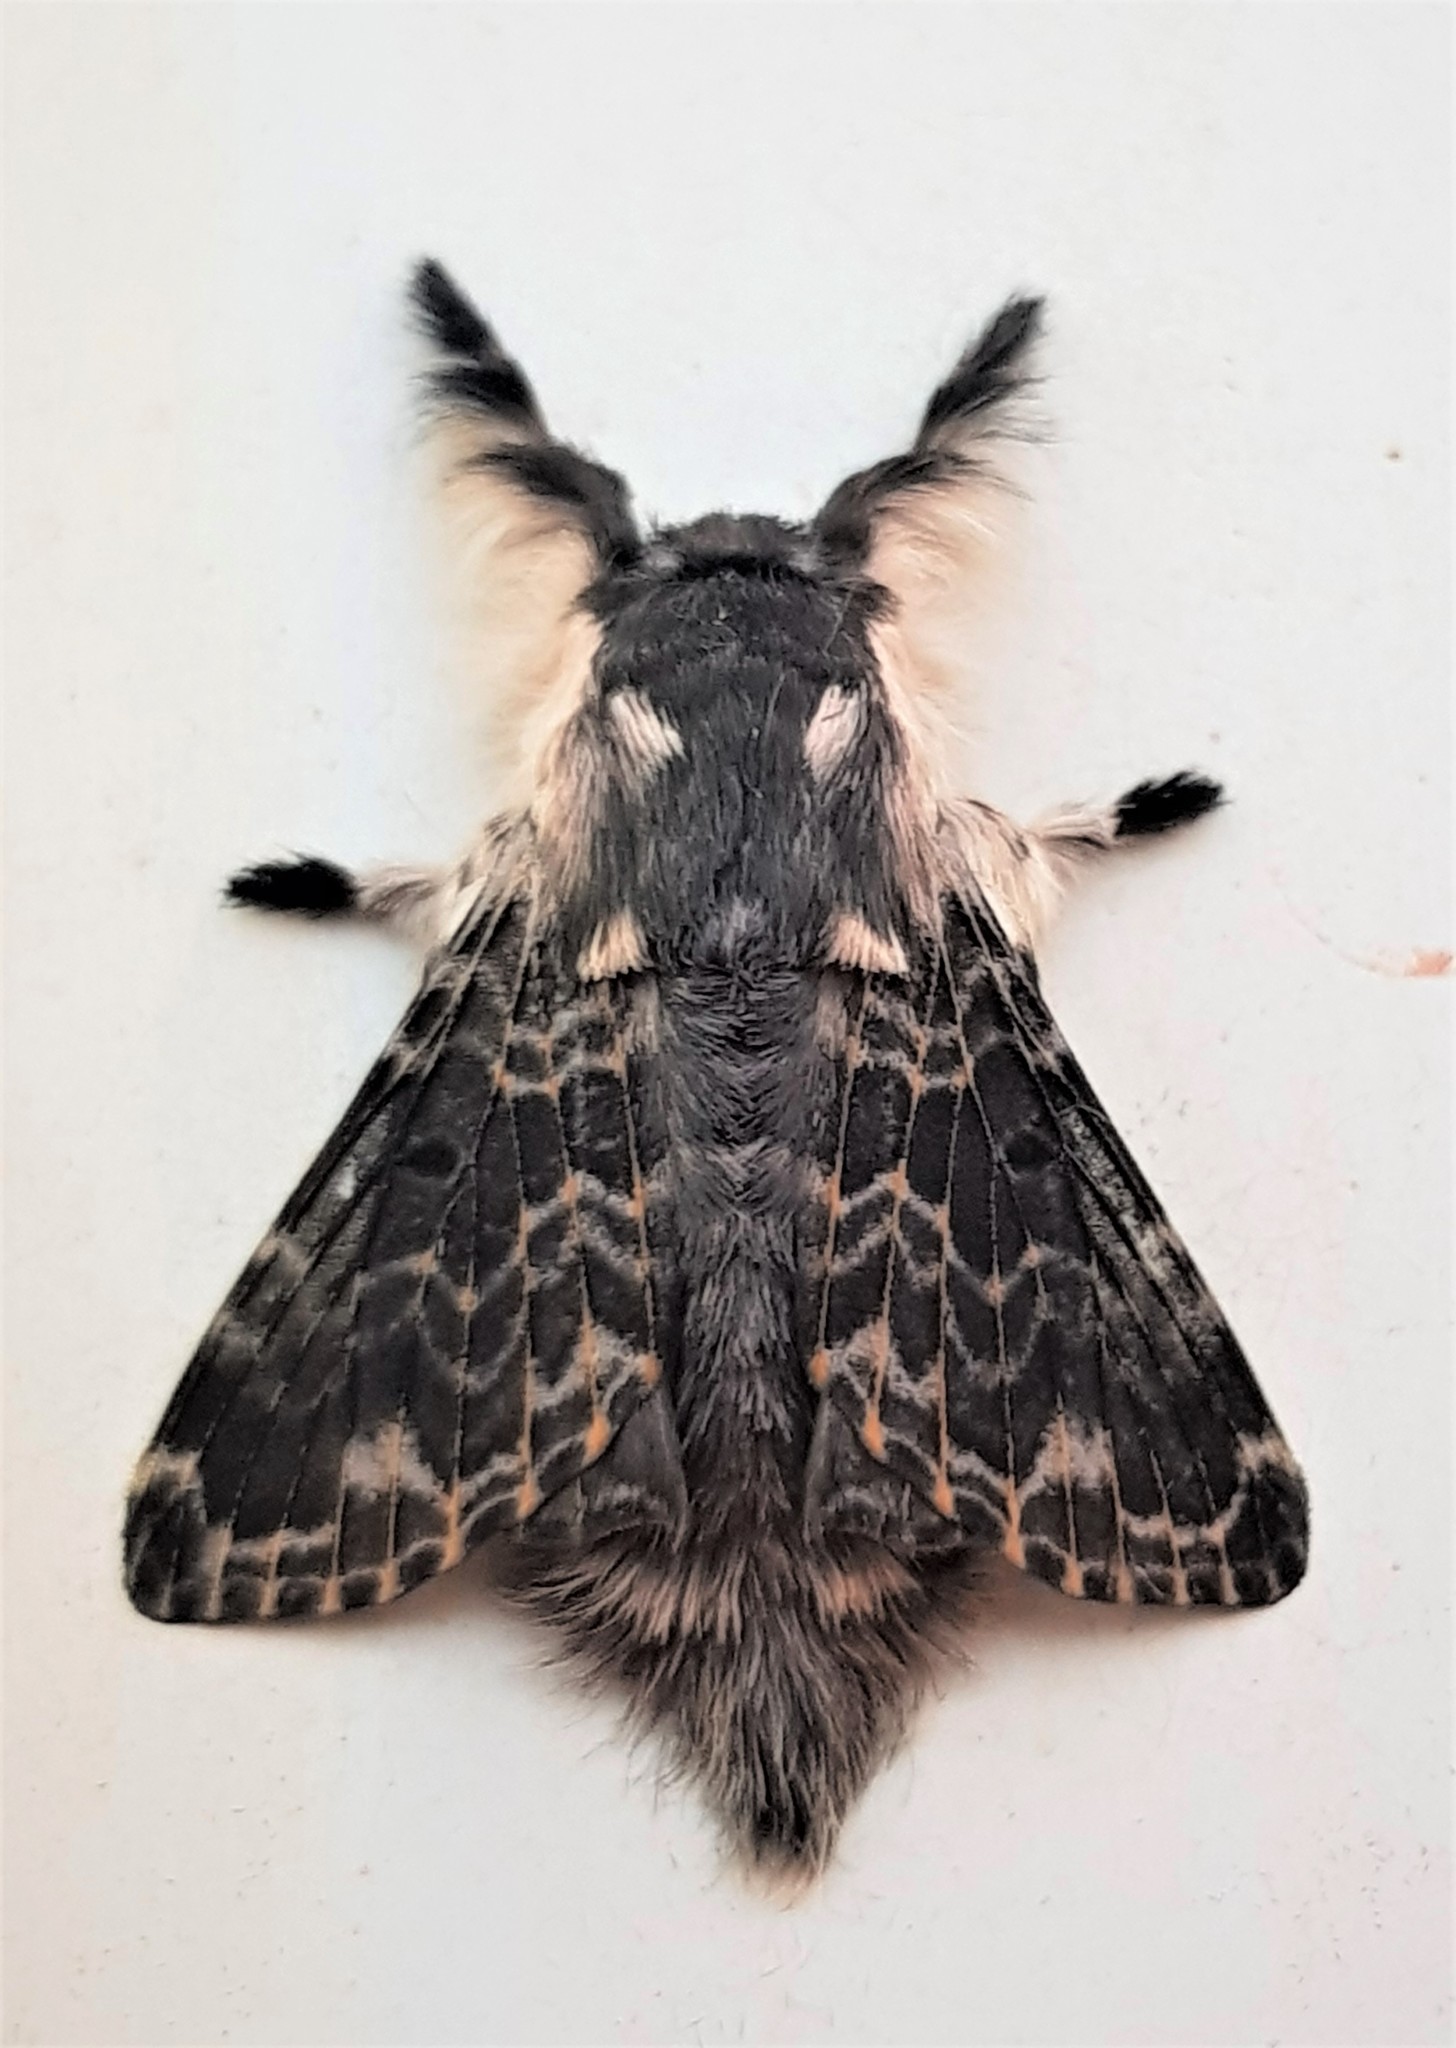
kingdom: Animalia
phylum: Arthropoda
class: Insecta
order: Lepidoptera
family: Lasiocampidae
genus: Labedera
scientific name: Labedera primitiva
